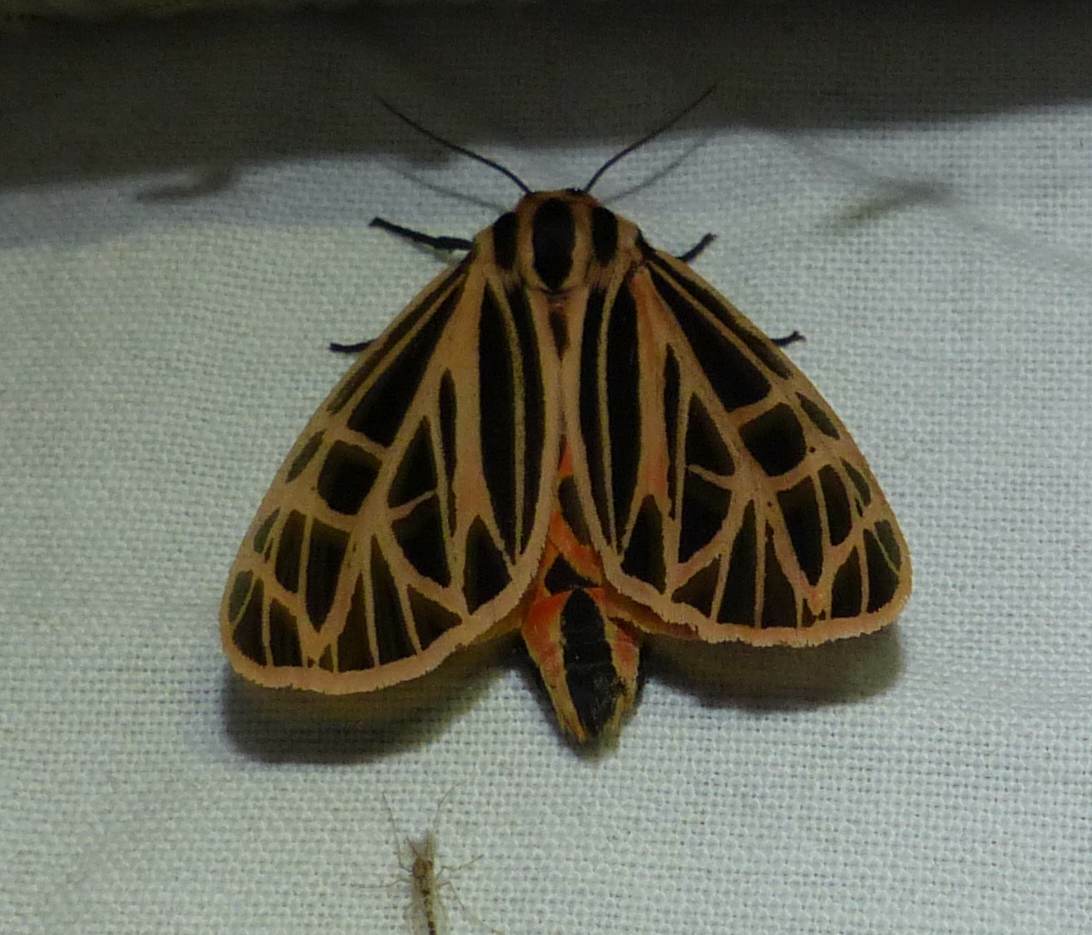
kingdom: Animalia
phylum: Arthropoda
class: Insecta
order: Lepidoptera
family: Erebidae
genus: Grammia
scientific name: Grammia virgo
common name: Virgin tiger moth
